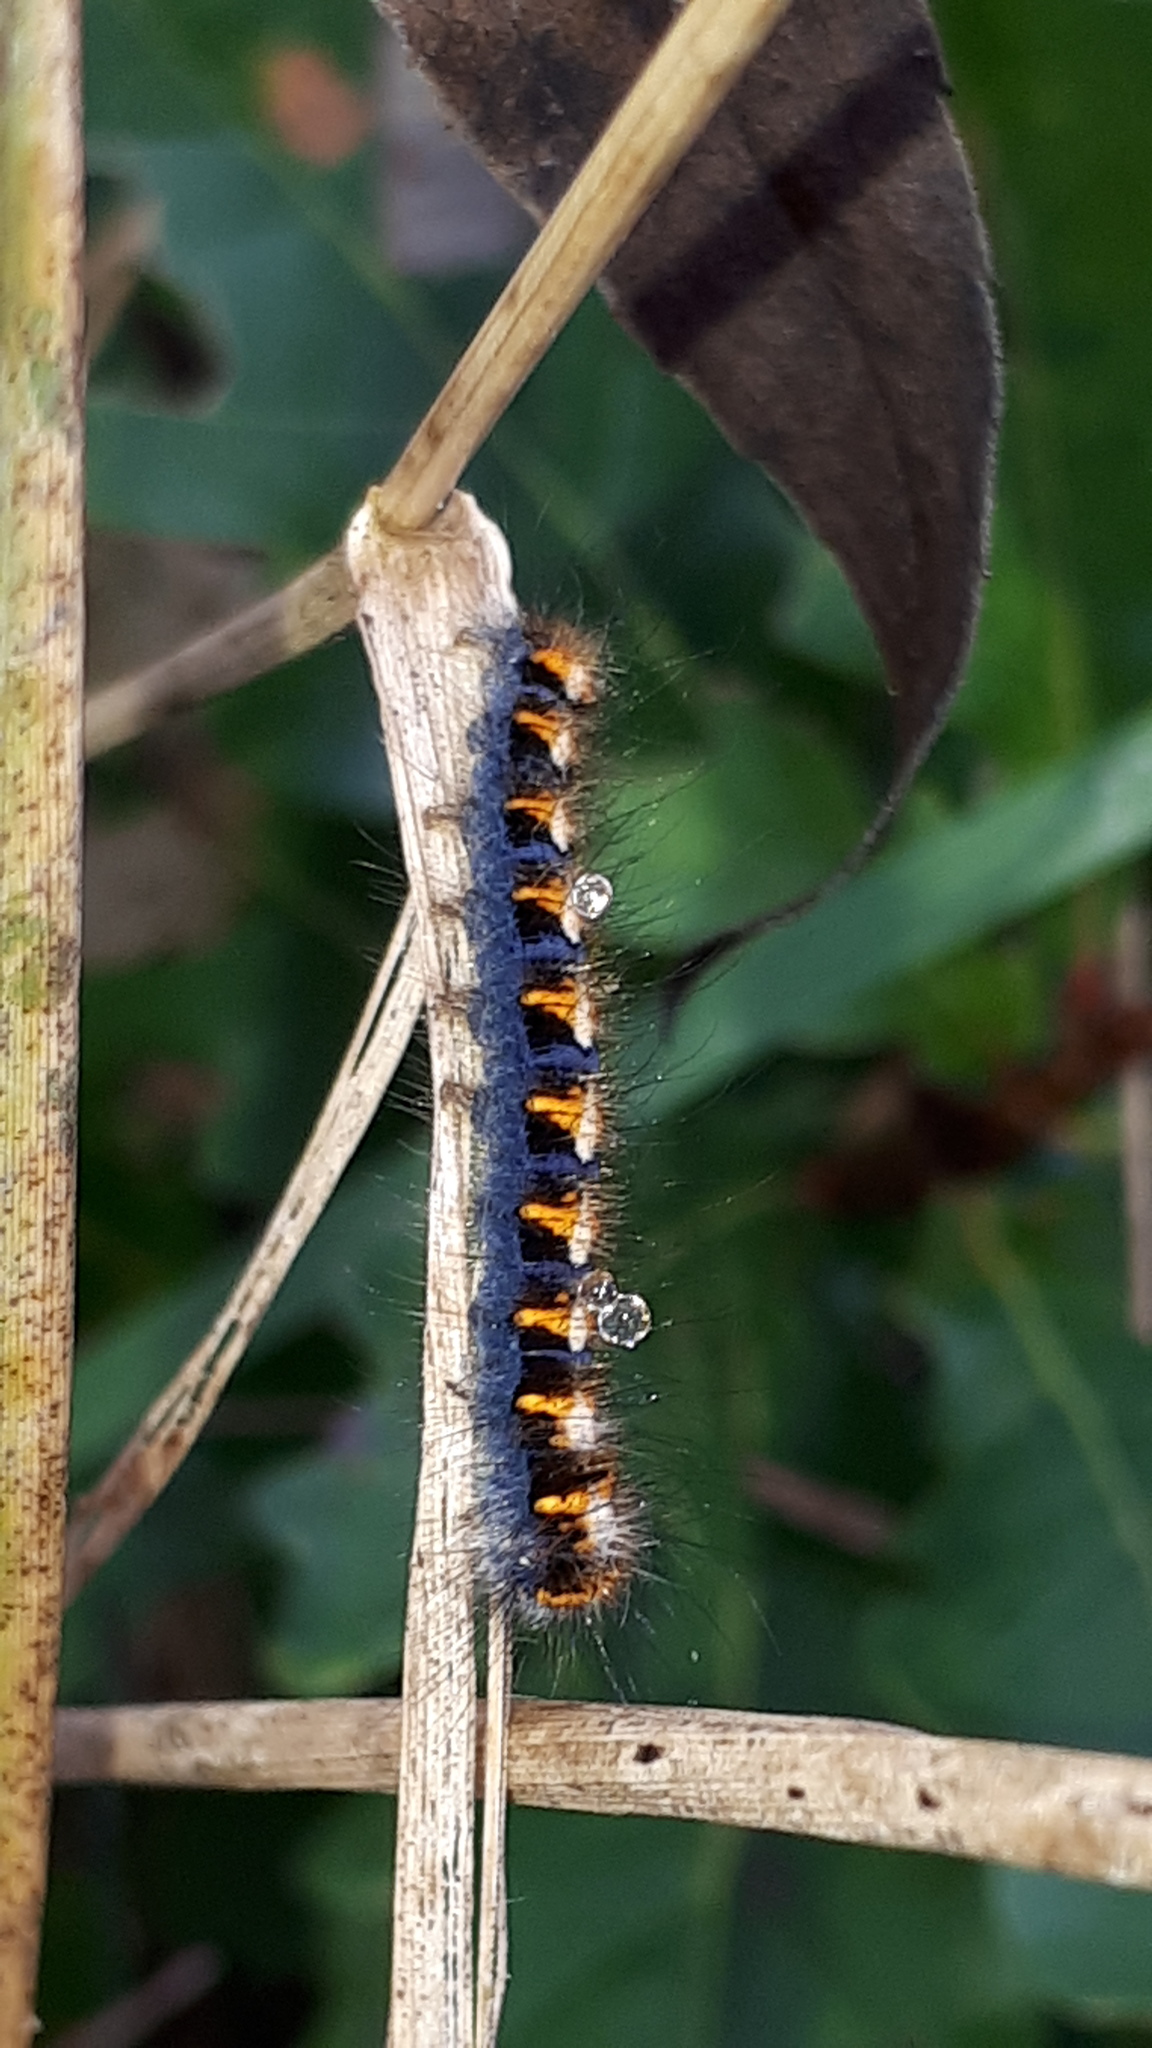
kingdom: Animalia
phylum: Arthropoda
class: Insecta
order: Lepidoptera
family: Lasiocampidae
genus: Lasiocampa
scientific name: Lasiocampa quercus
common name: Oak eggar
